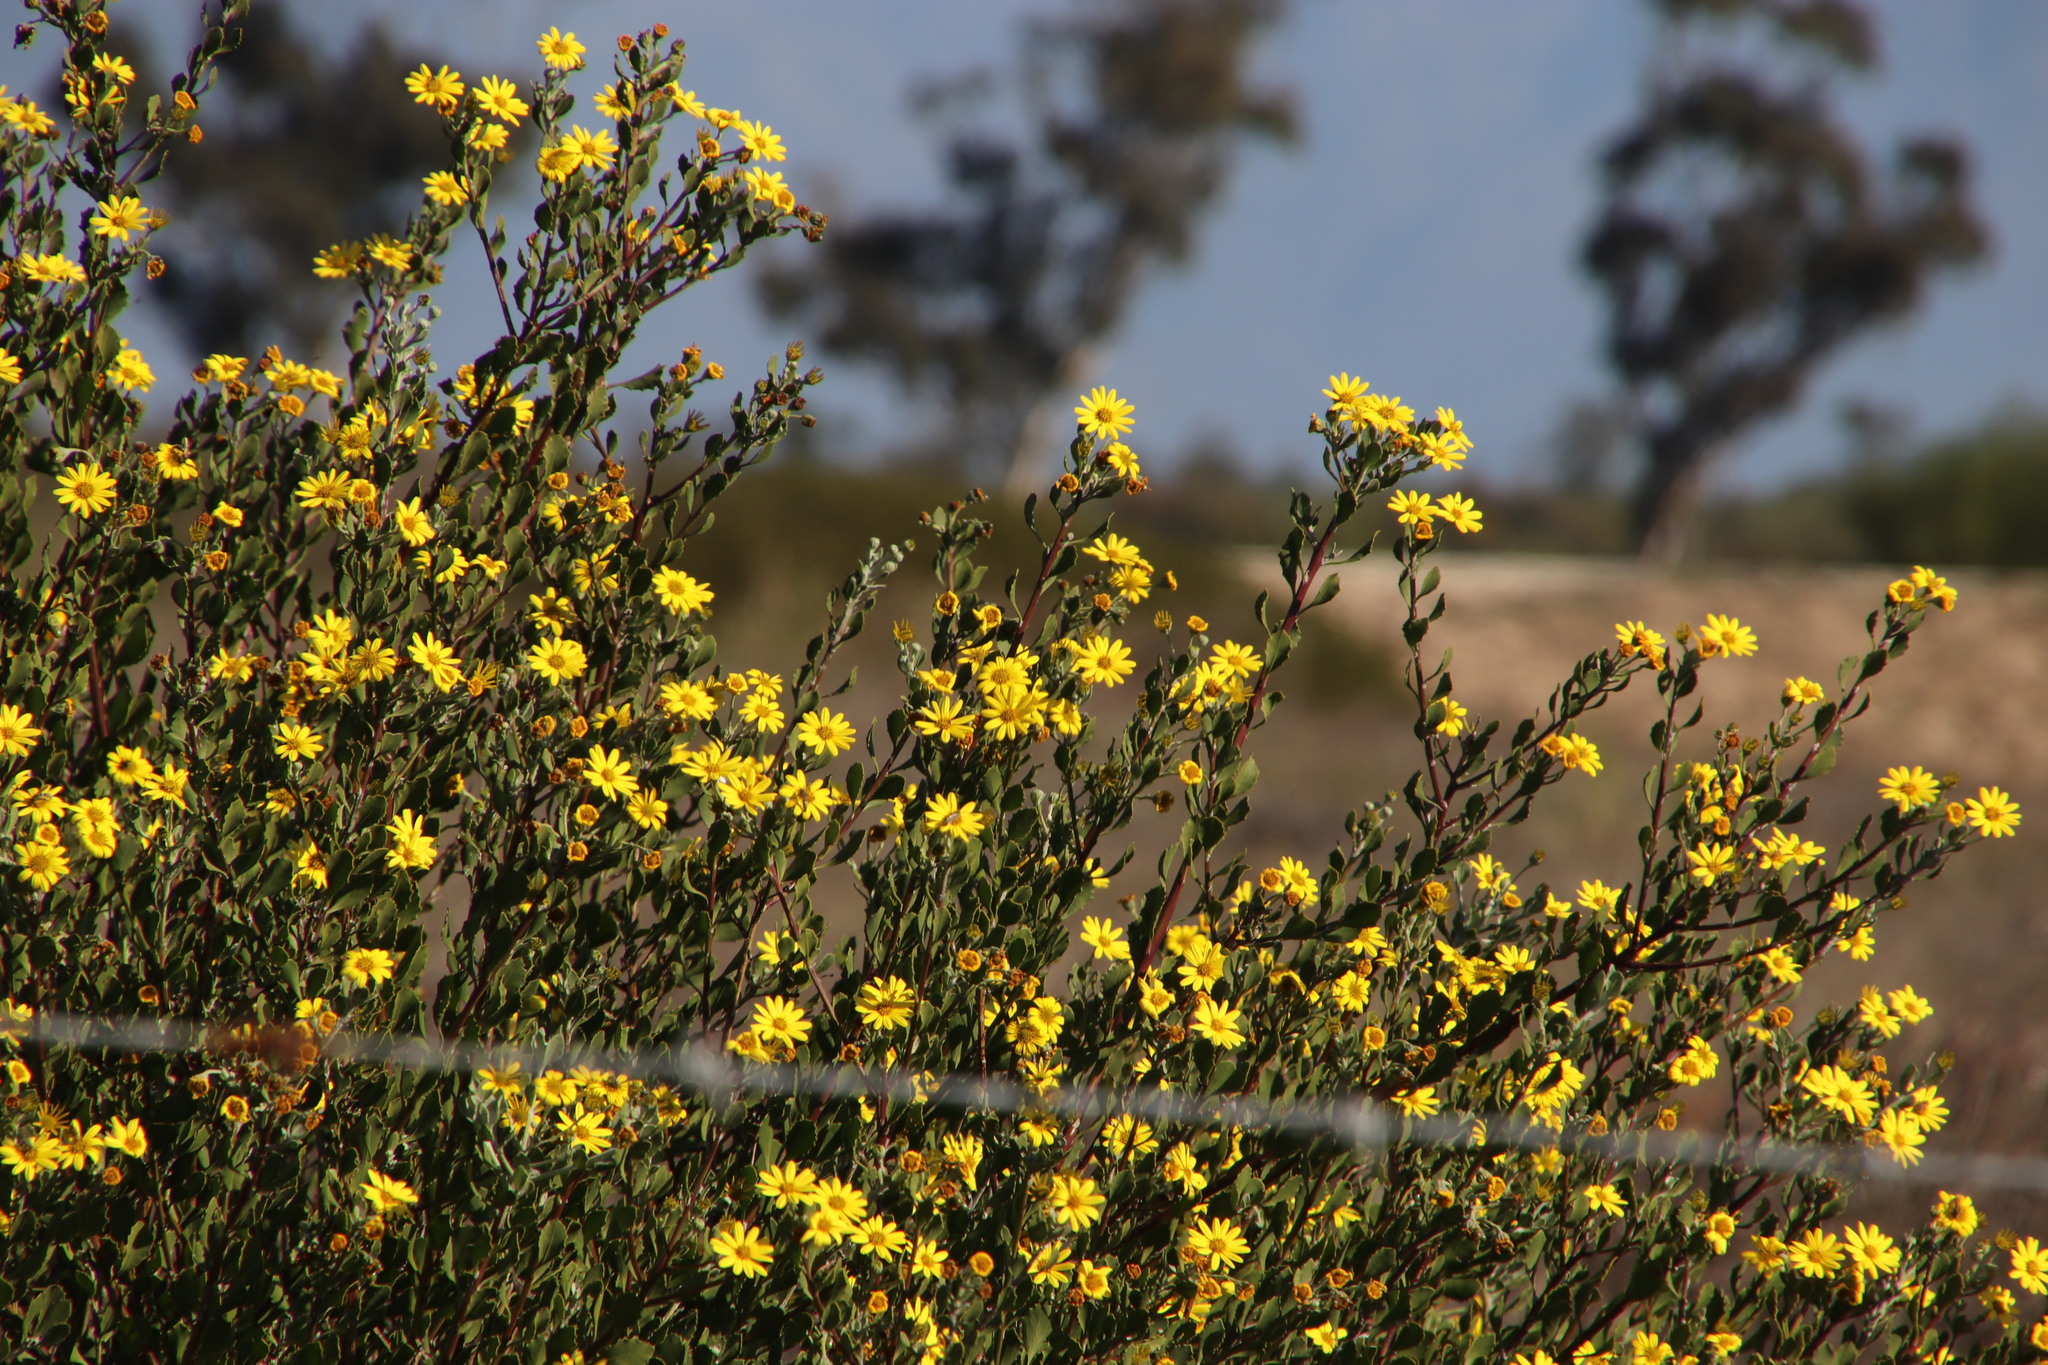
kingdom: Plantae
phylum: Tracheophyta
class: Magnoliopsida
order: Asterales
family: Asteraceae
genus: Osteospermum
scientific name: Osteospermum moniliferum
